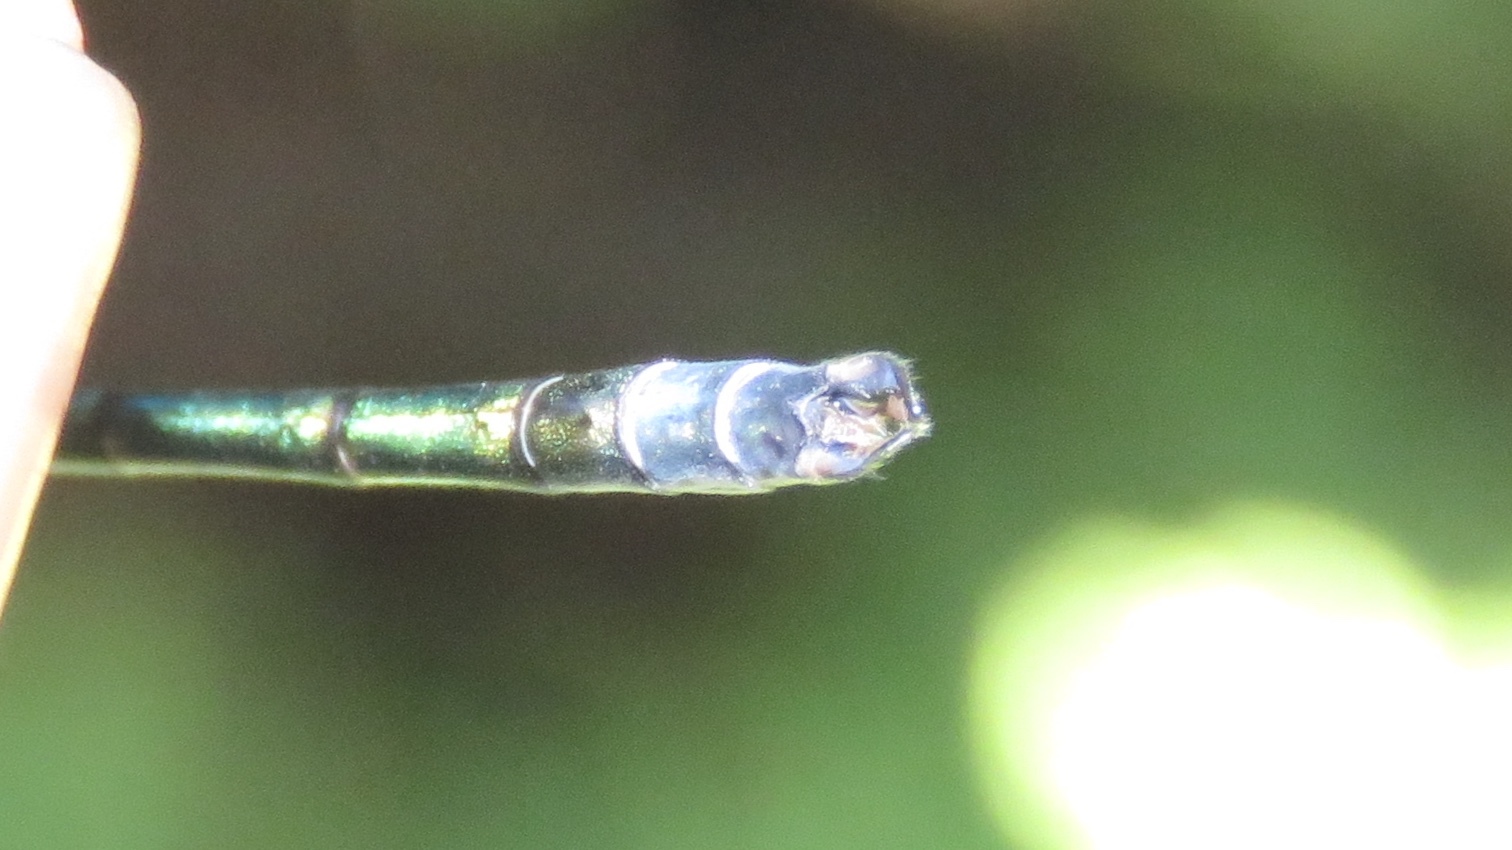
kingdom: Animalia
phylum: Arthropoda
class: Insecta
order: Odonata
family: Lestidae
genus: Lestes
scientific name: Lestes dryas
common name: Scarce emerald damselfly
